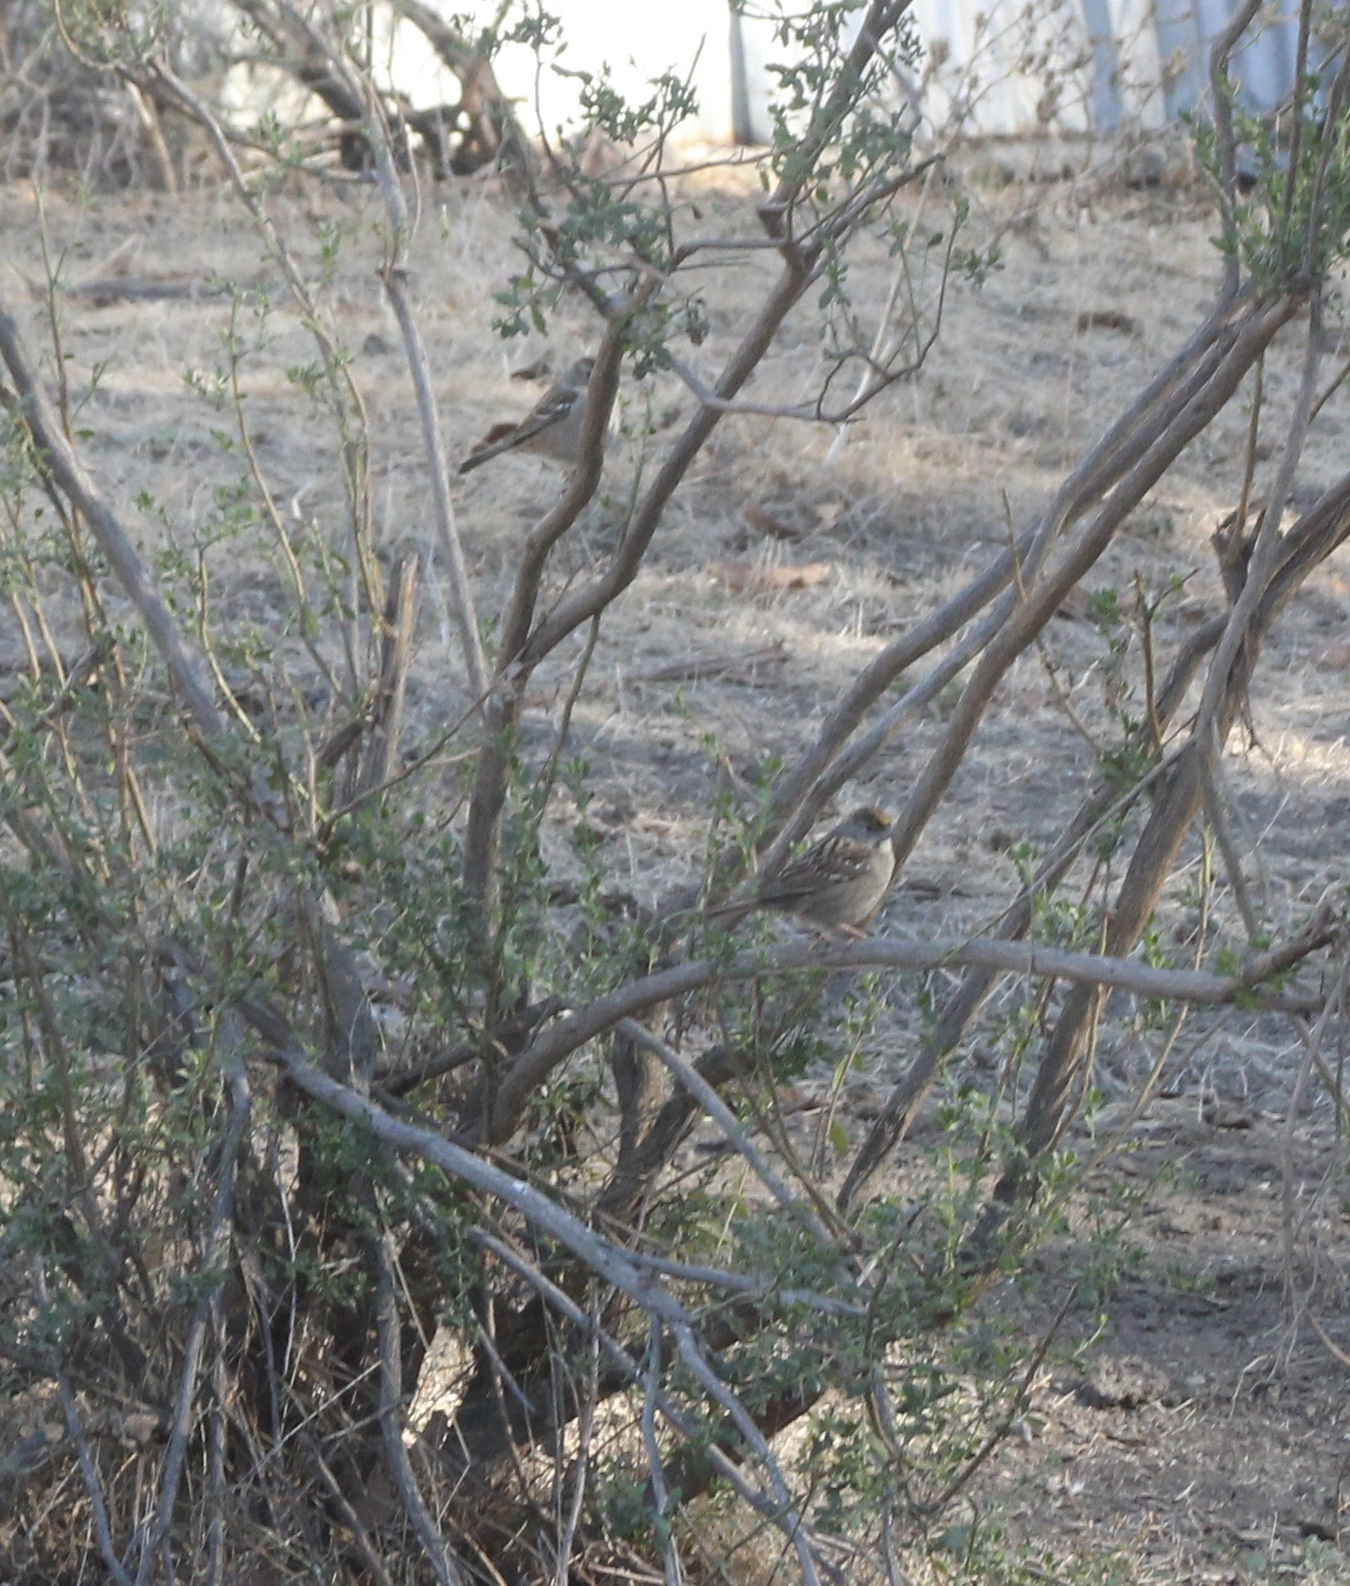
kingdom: Animalia
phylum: Chordata
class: Aves
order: Passeriformes
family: Passerellidae
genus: Zonotrichia
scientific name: Zonotrichia atricapilla
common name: Golden-crowned sparrow
